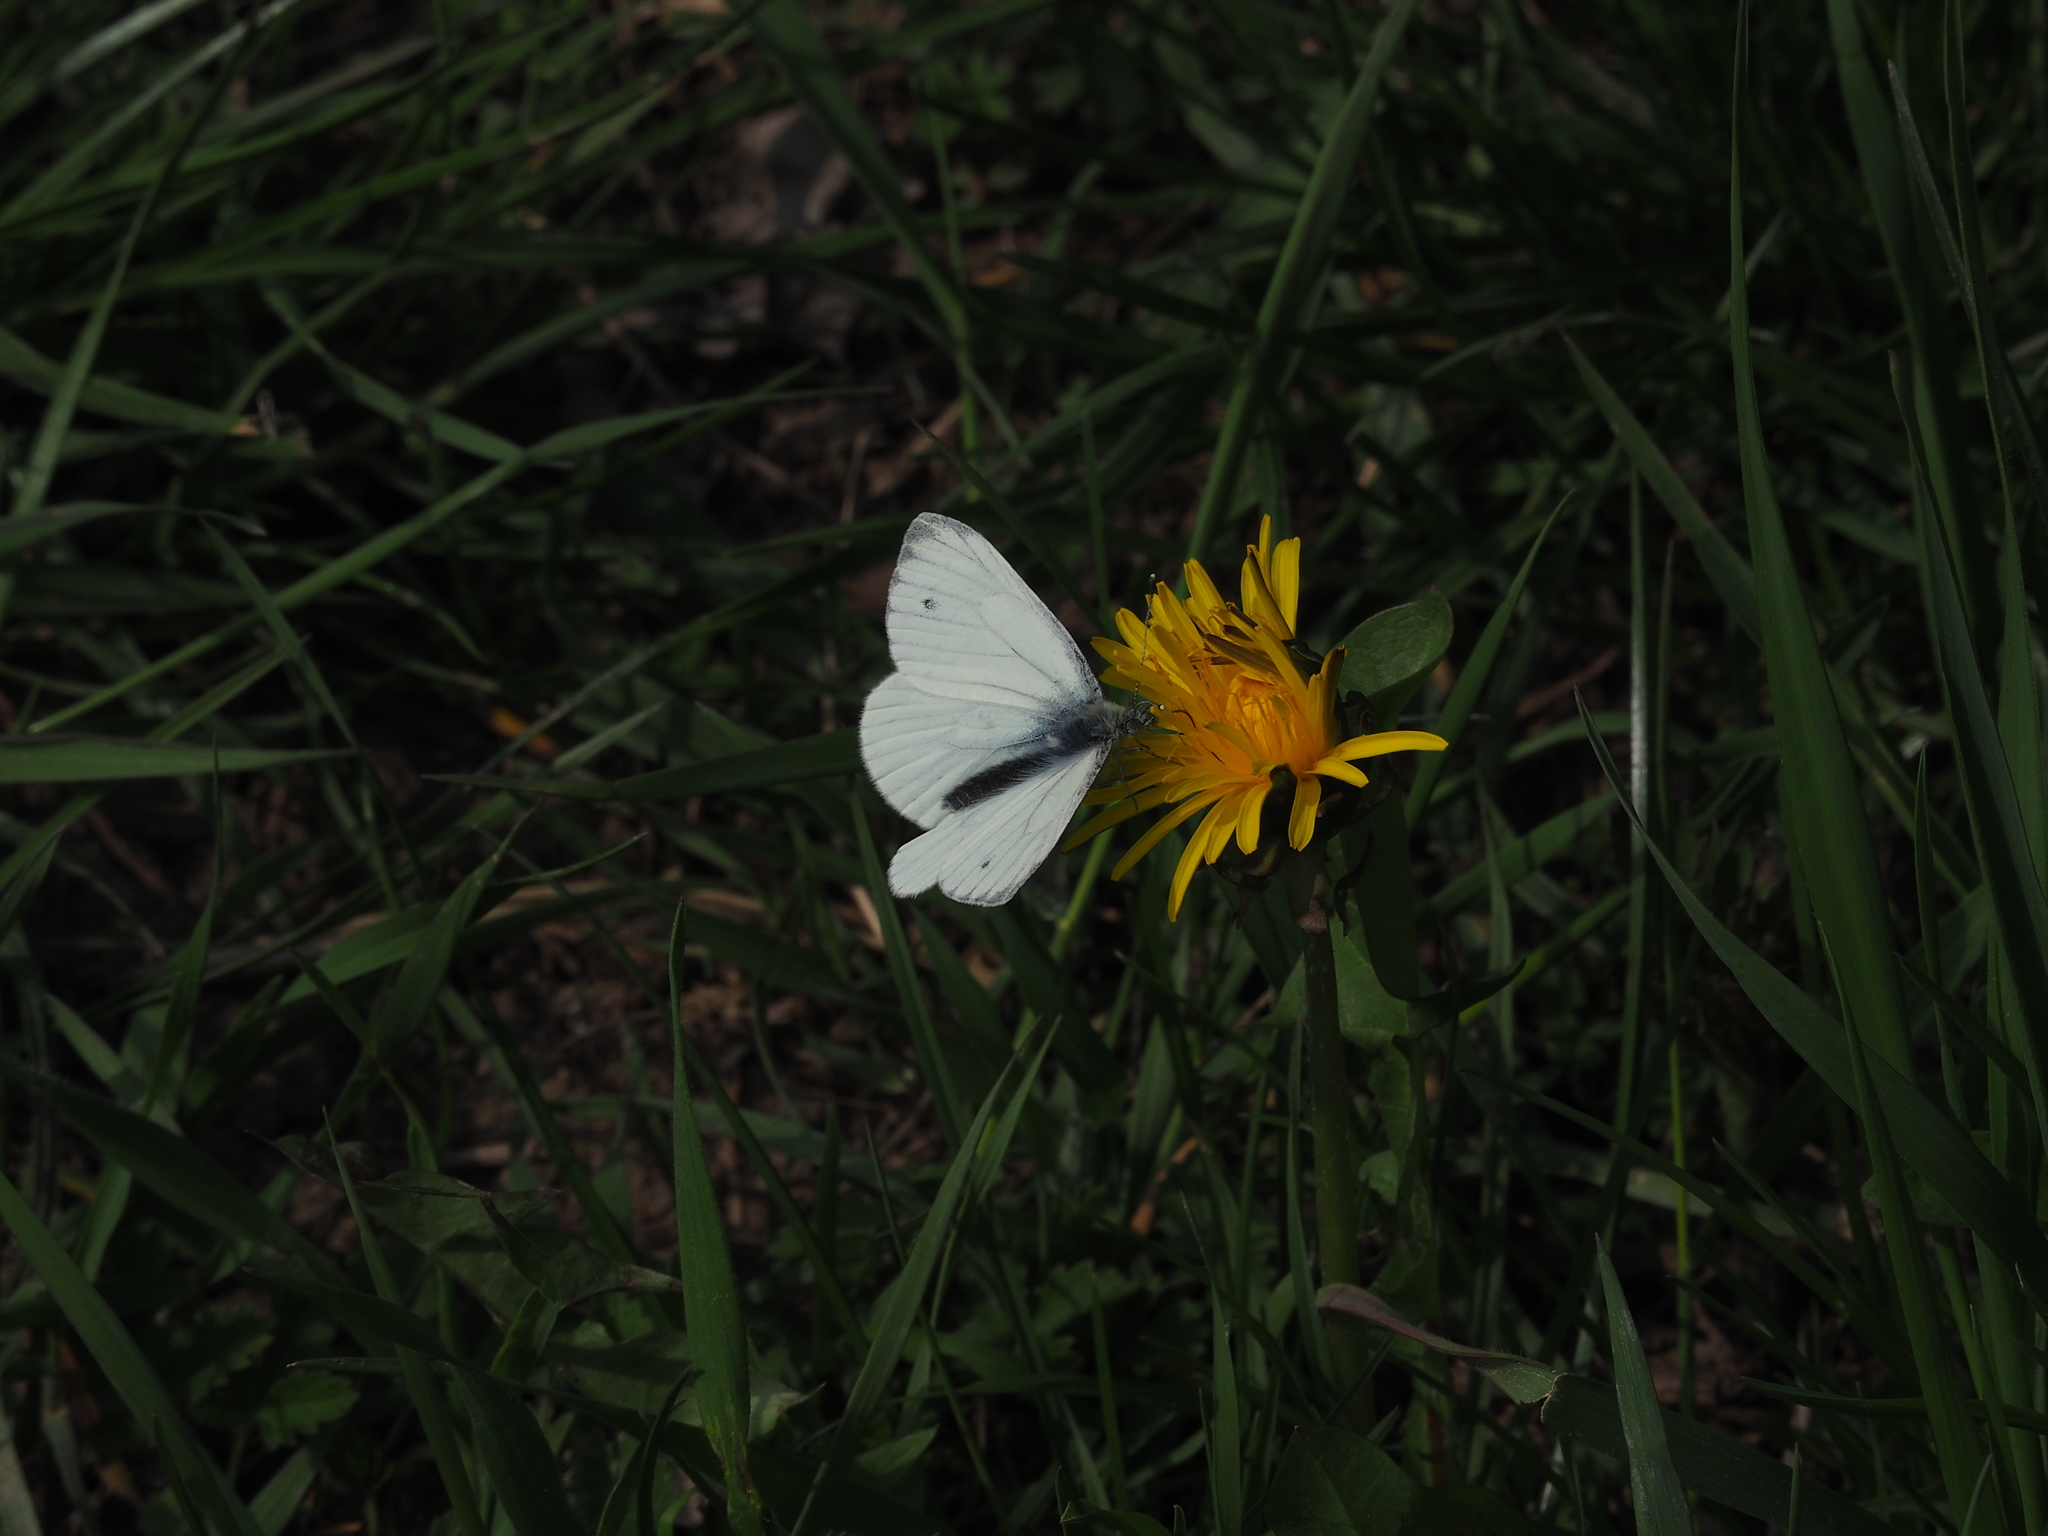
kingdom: Animalia
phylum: Arthropoda
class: Insecta
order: Lepidoptera
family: Pieridae
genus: Pieris
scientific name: Pieris napi
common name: Green-veined white
